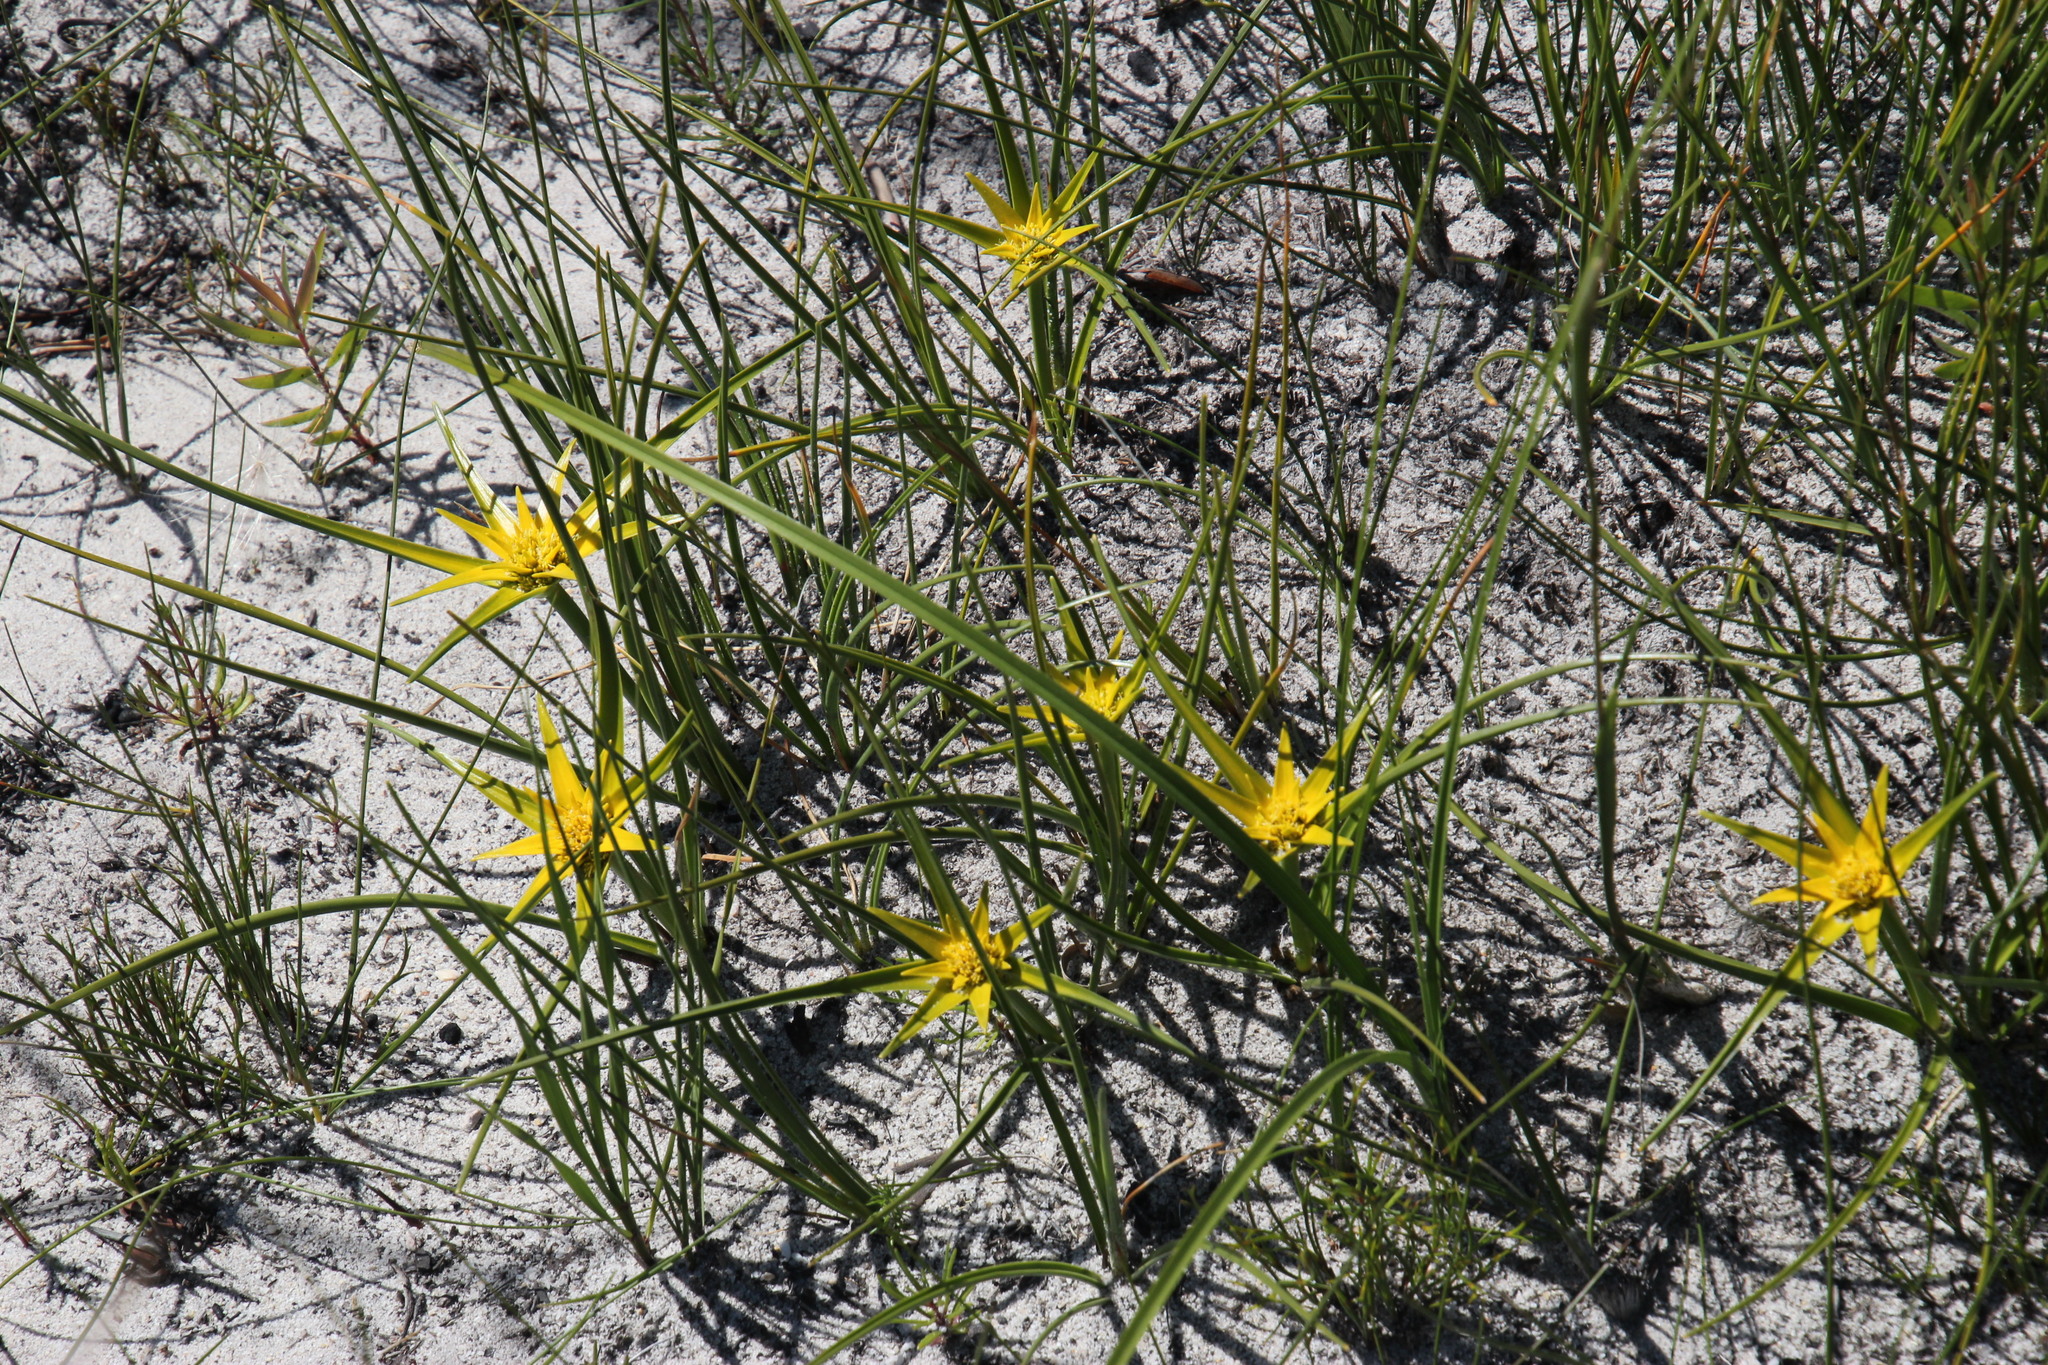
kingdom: Plantae
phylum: Tracheophyta
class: Liliopsida
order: Poales
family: Cyperaceae
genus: Ficinia
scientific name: Ficinia radiata
